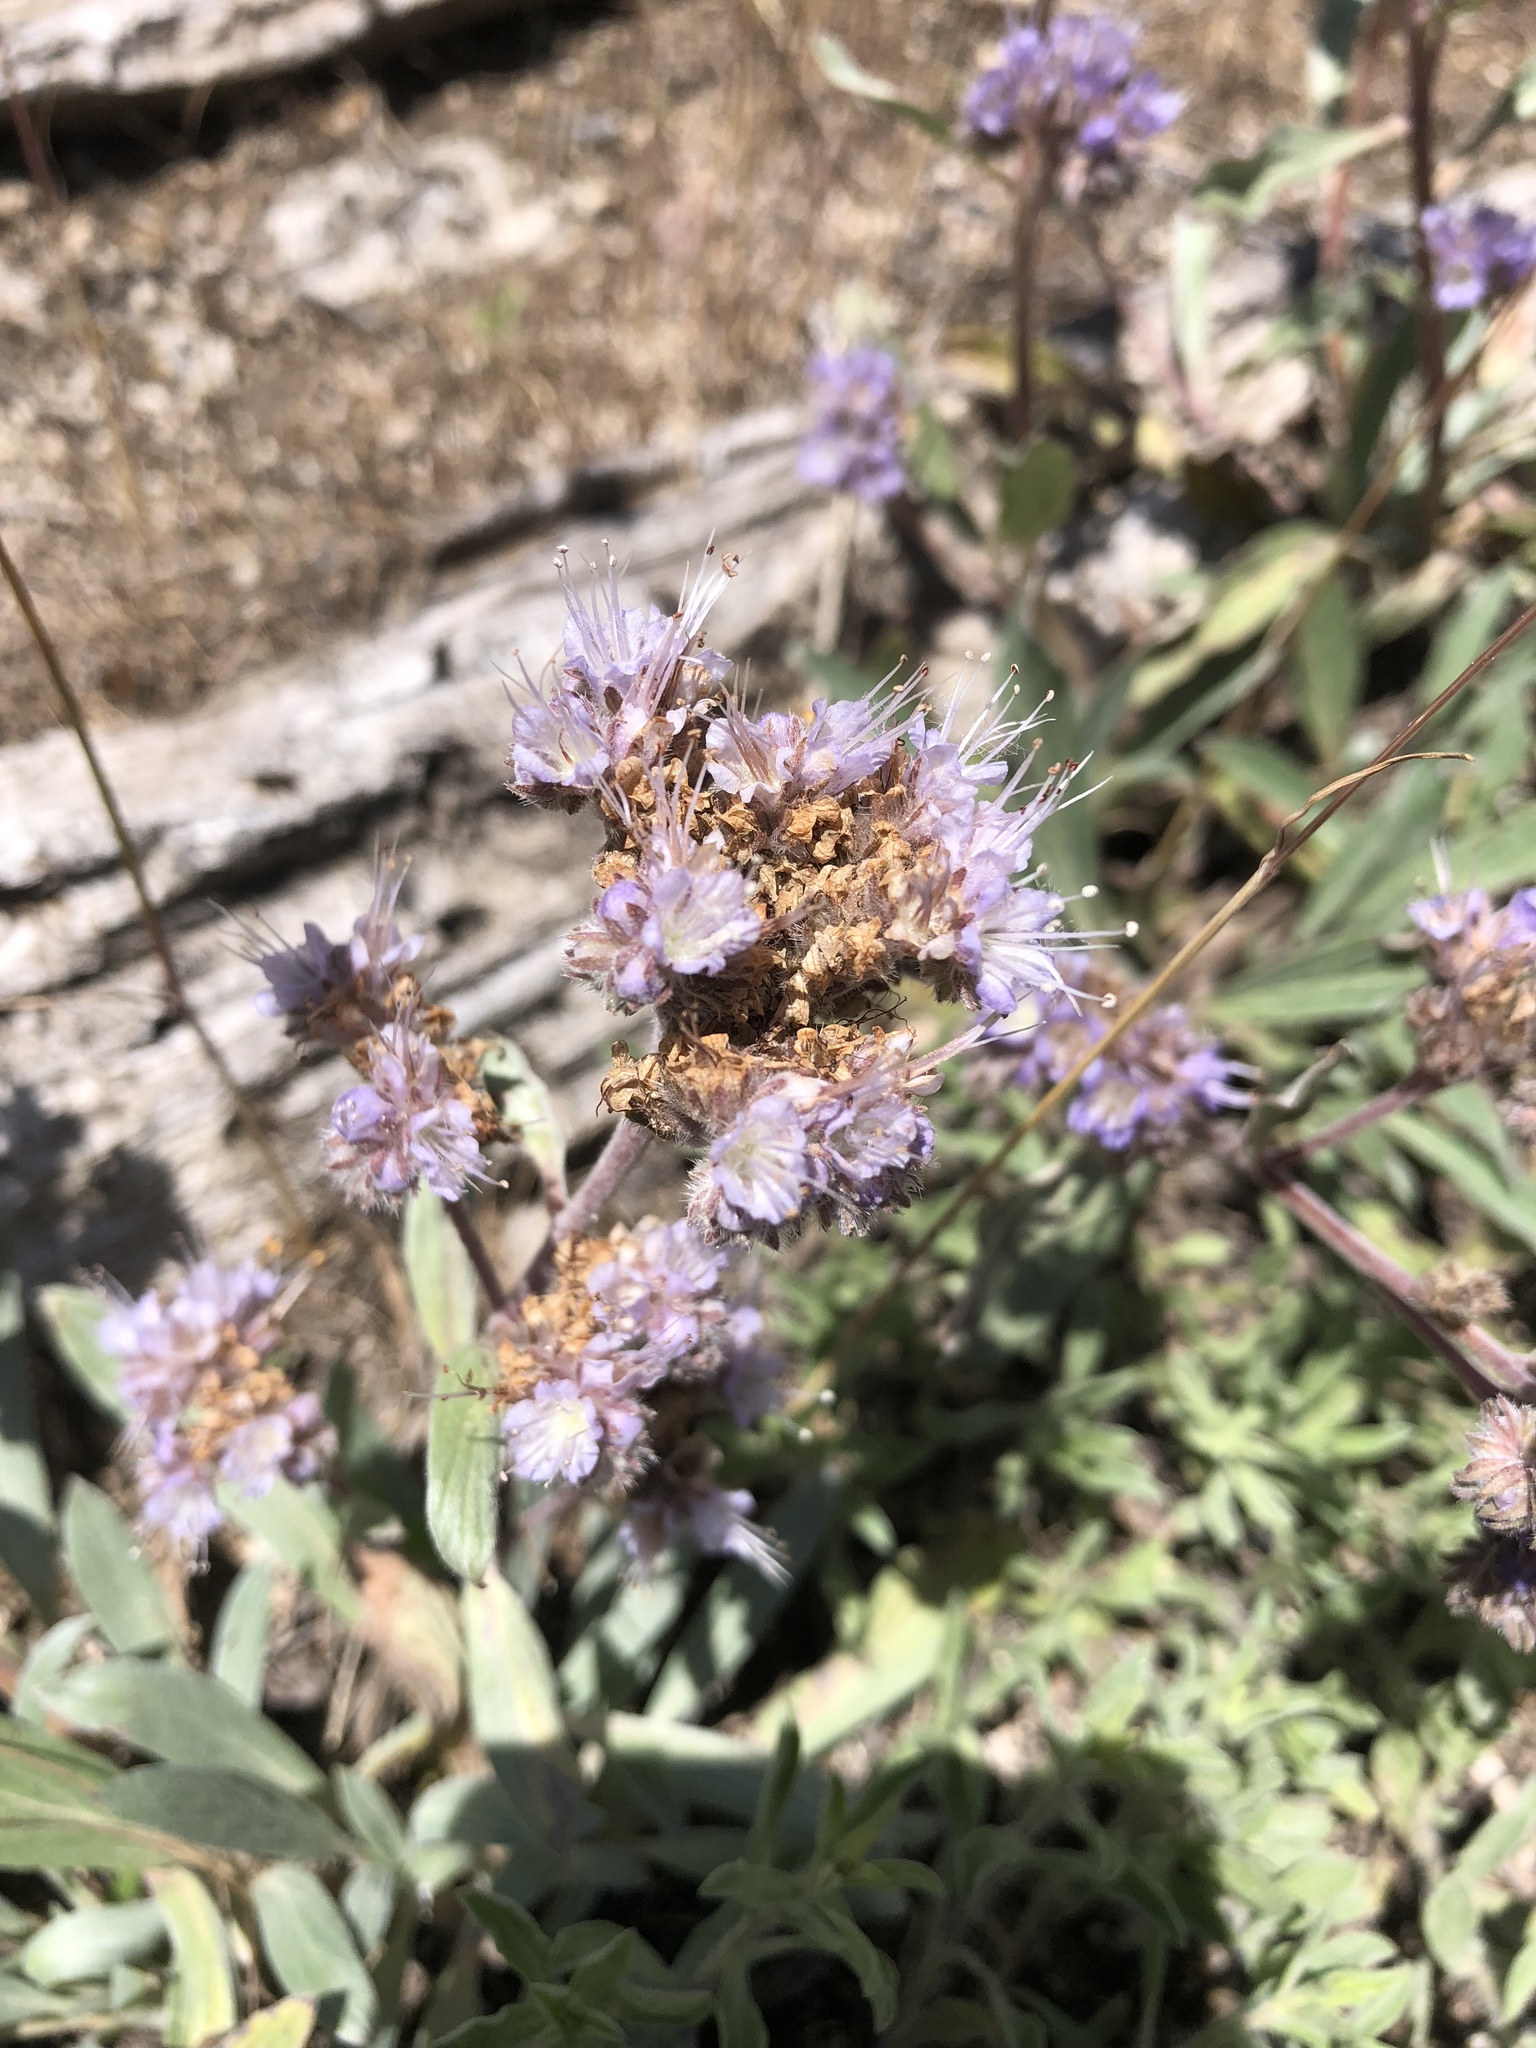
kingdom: Plantae
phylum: Tracheophyta
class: Magnoliopsida
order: Boraginales
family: Hydrophyllaceae
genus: Phacelia
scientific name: Phacelia hastata
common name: Silver-leaved phacelia
